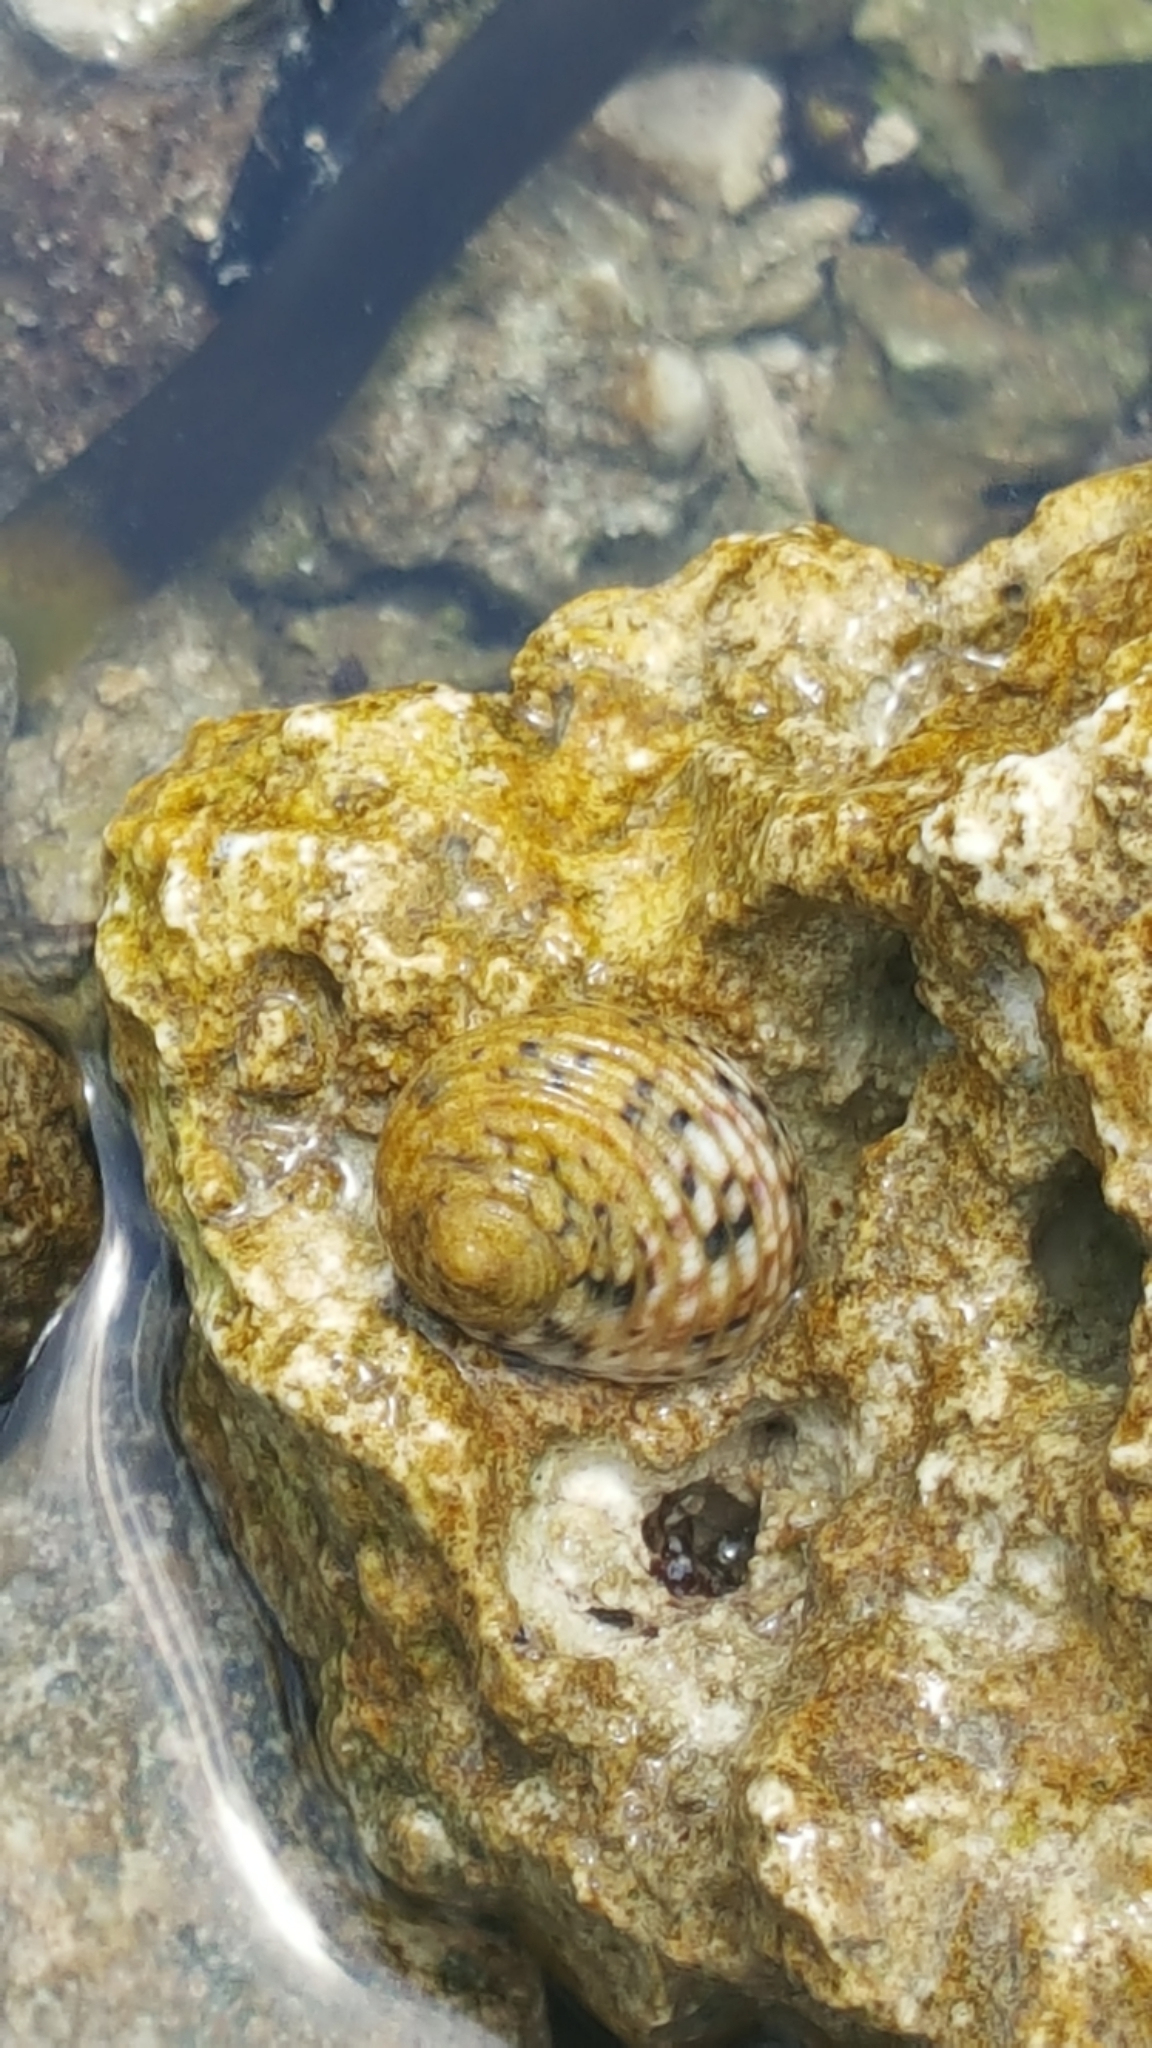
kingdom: Animalia
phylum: Mollusca
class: Gastropoda
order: Cycloneritida
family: Neritidae
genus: Nerita
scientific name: Nerita versicolor
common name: Four-tooth nerite
